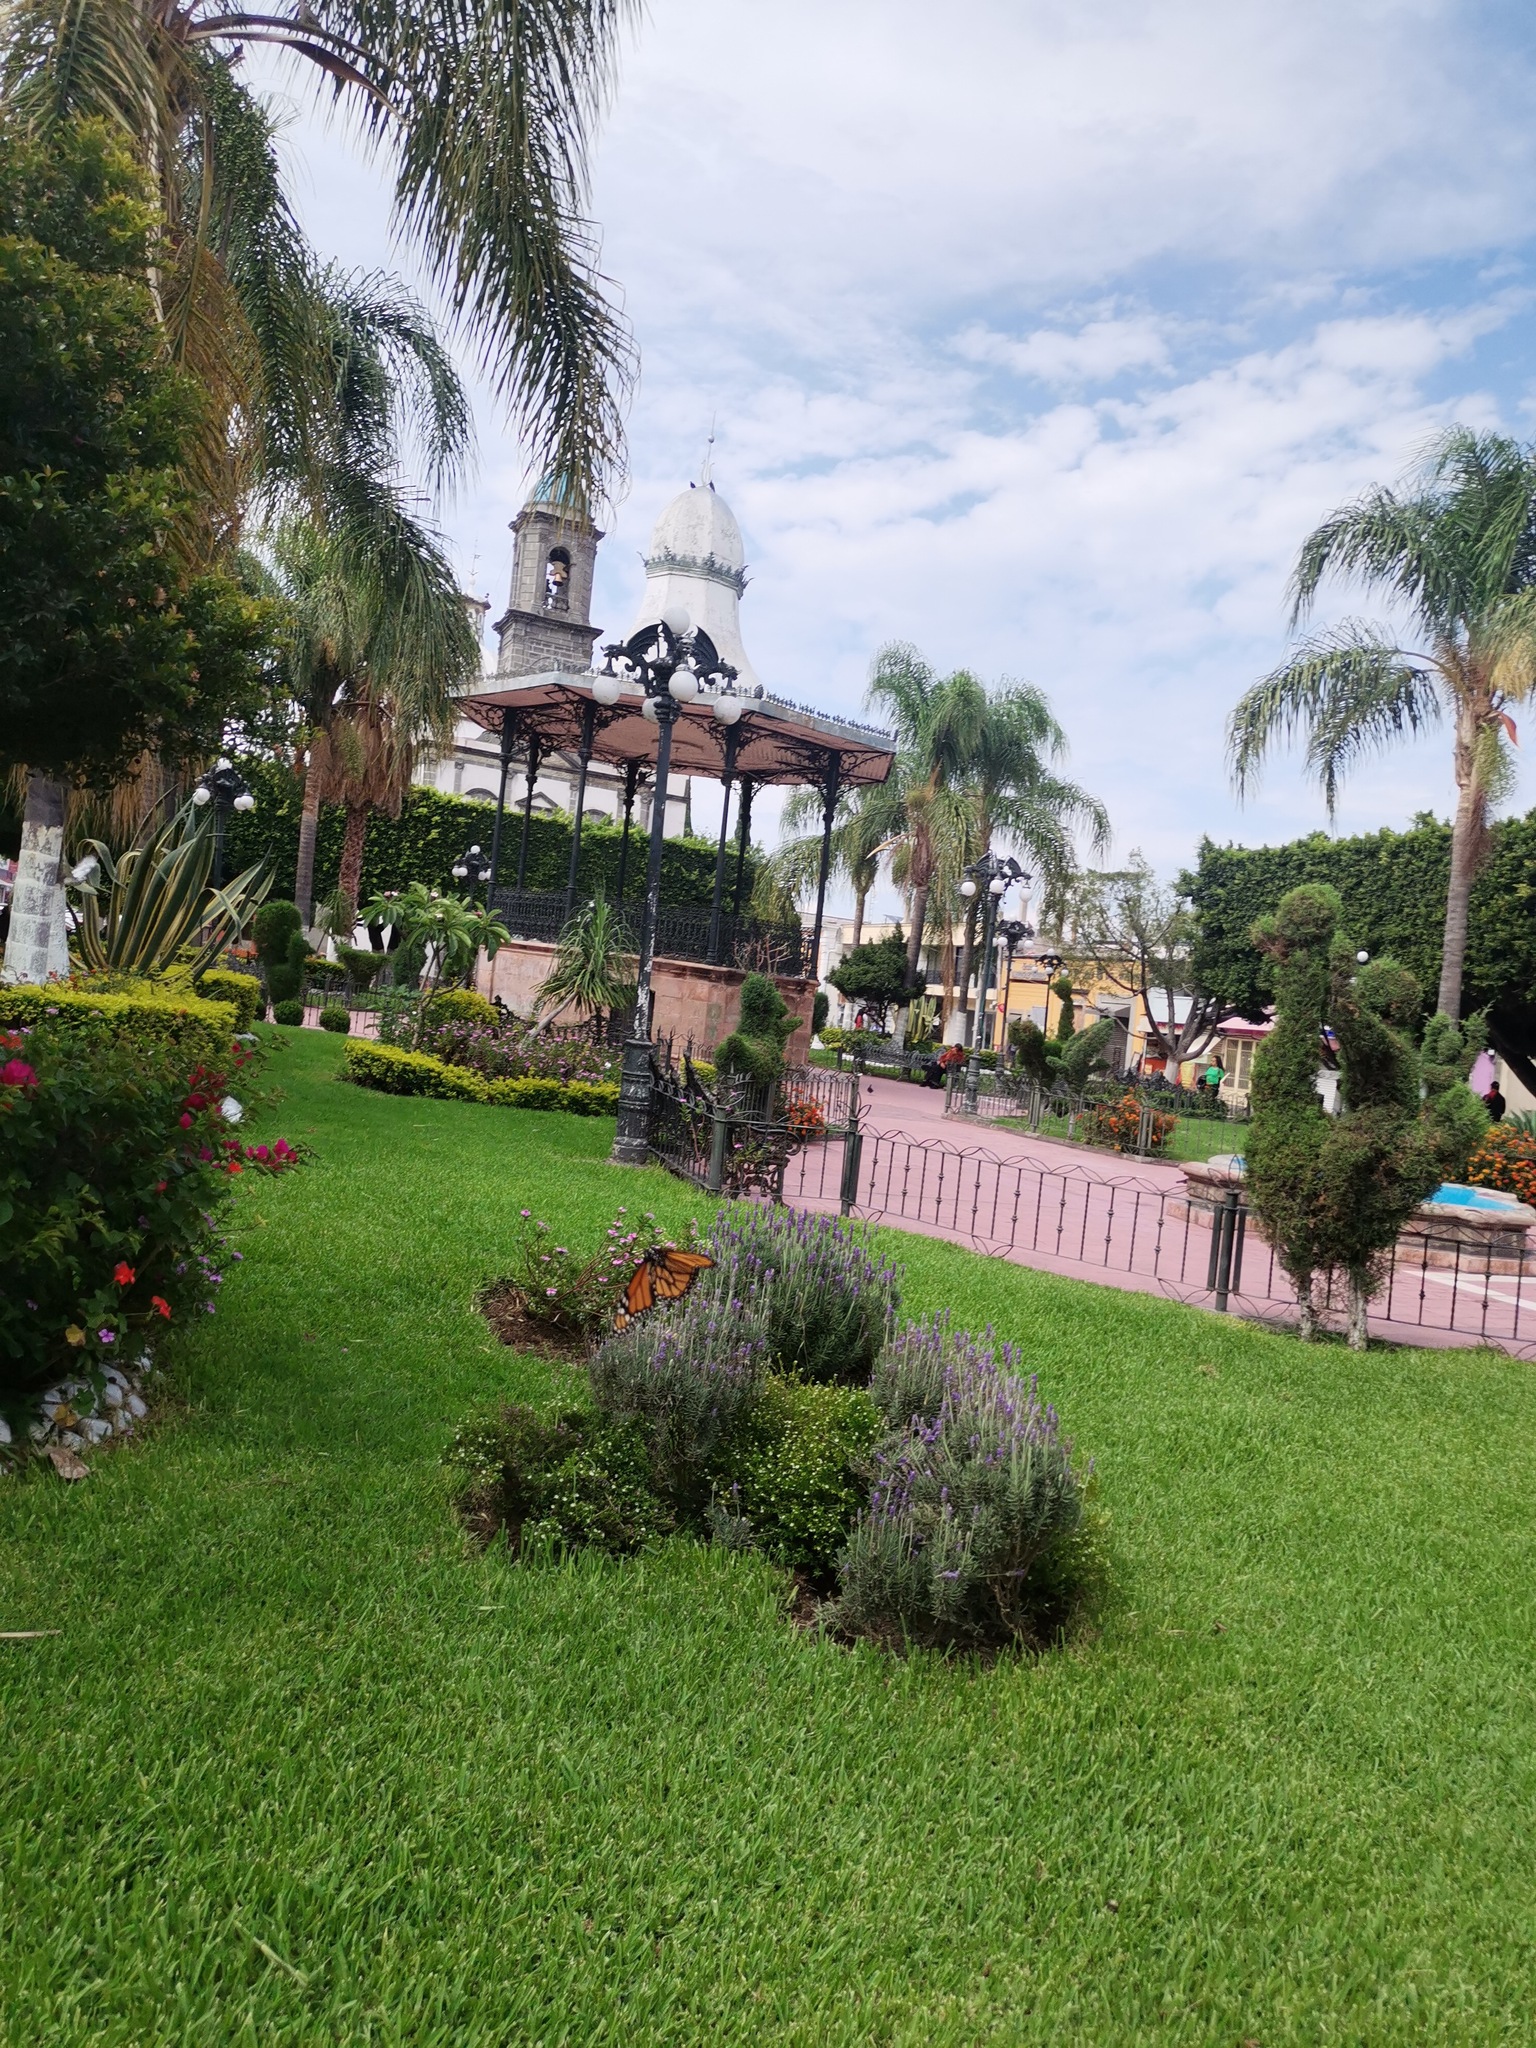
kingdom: Animalia
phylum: Arthropoda
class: Insecta
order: Lepidoptera
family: Nymphalidae
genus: Danaus
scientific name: Danaus plexippus
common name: Monarch
